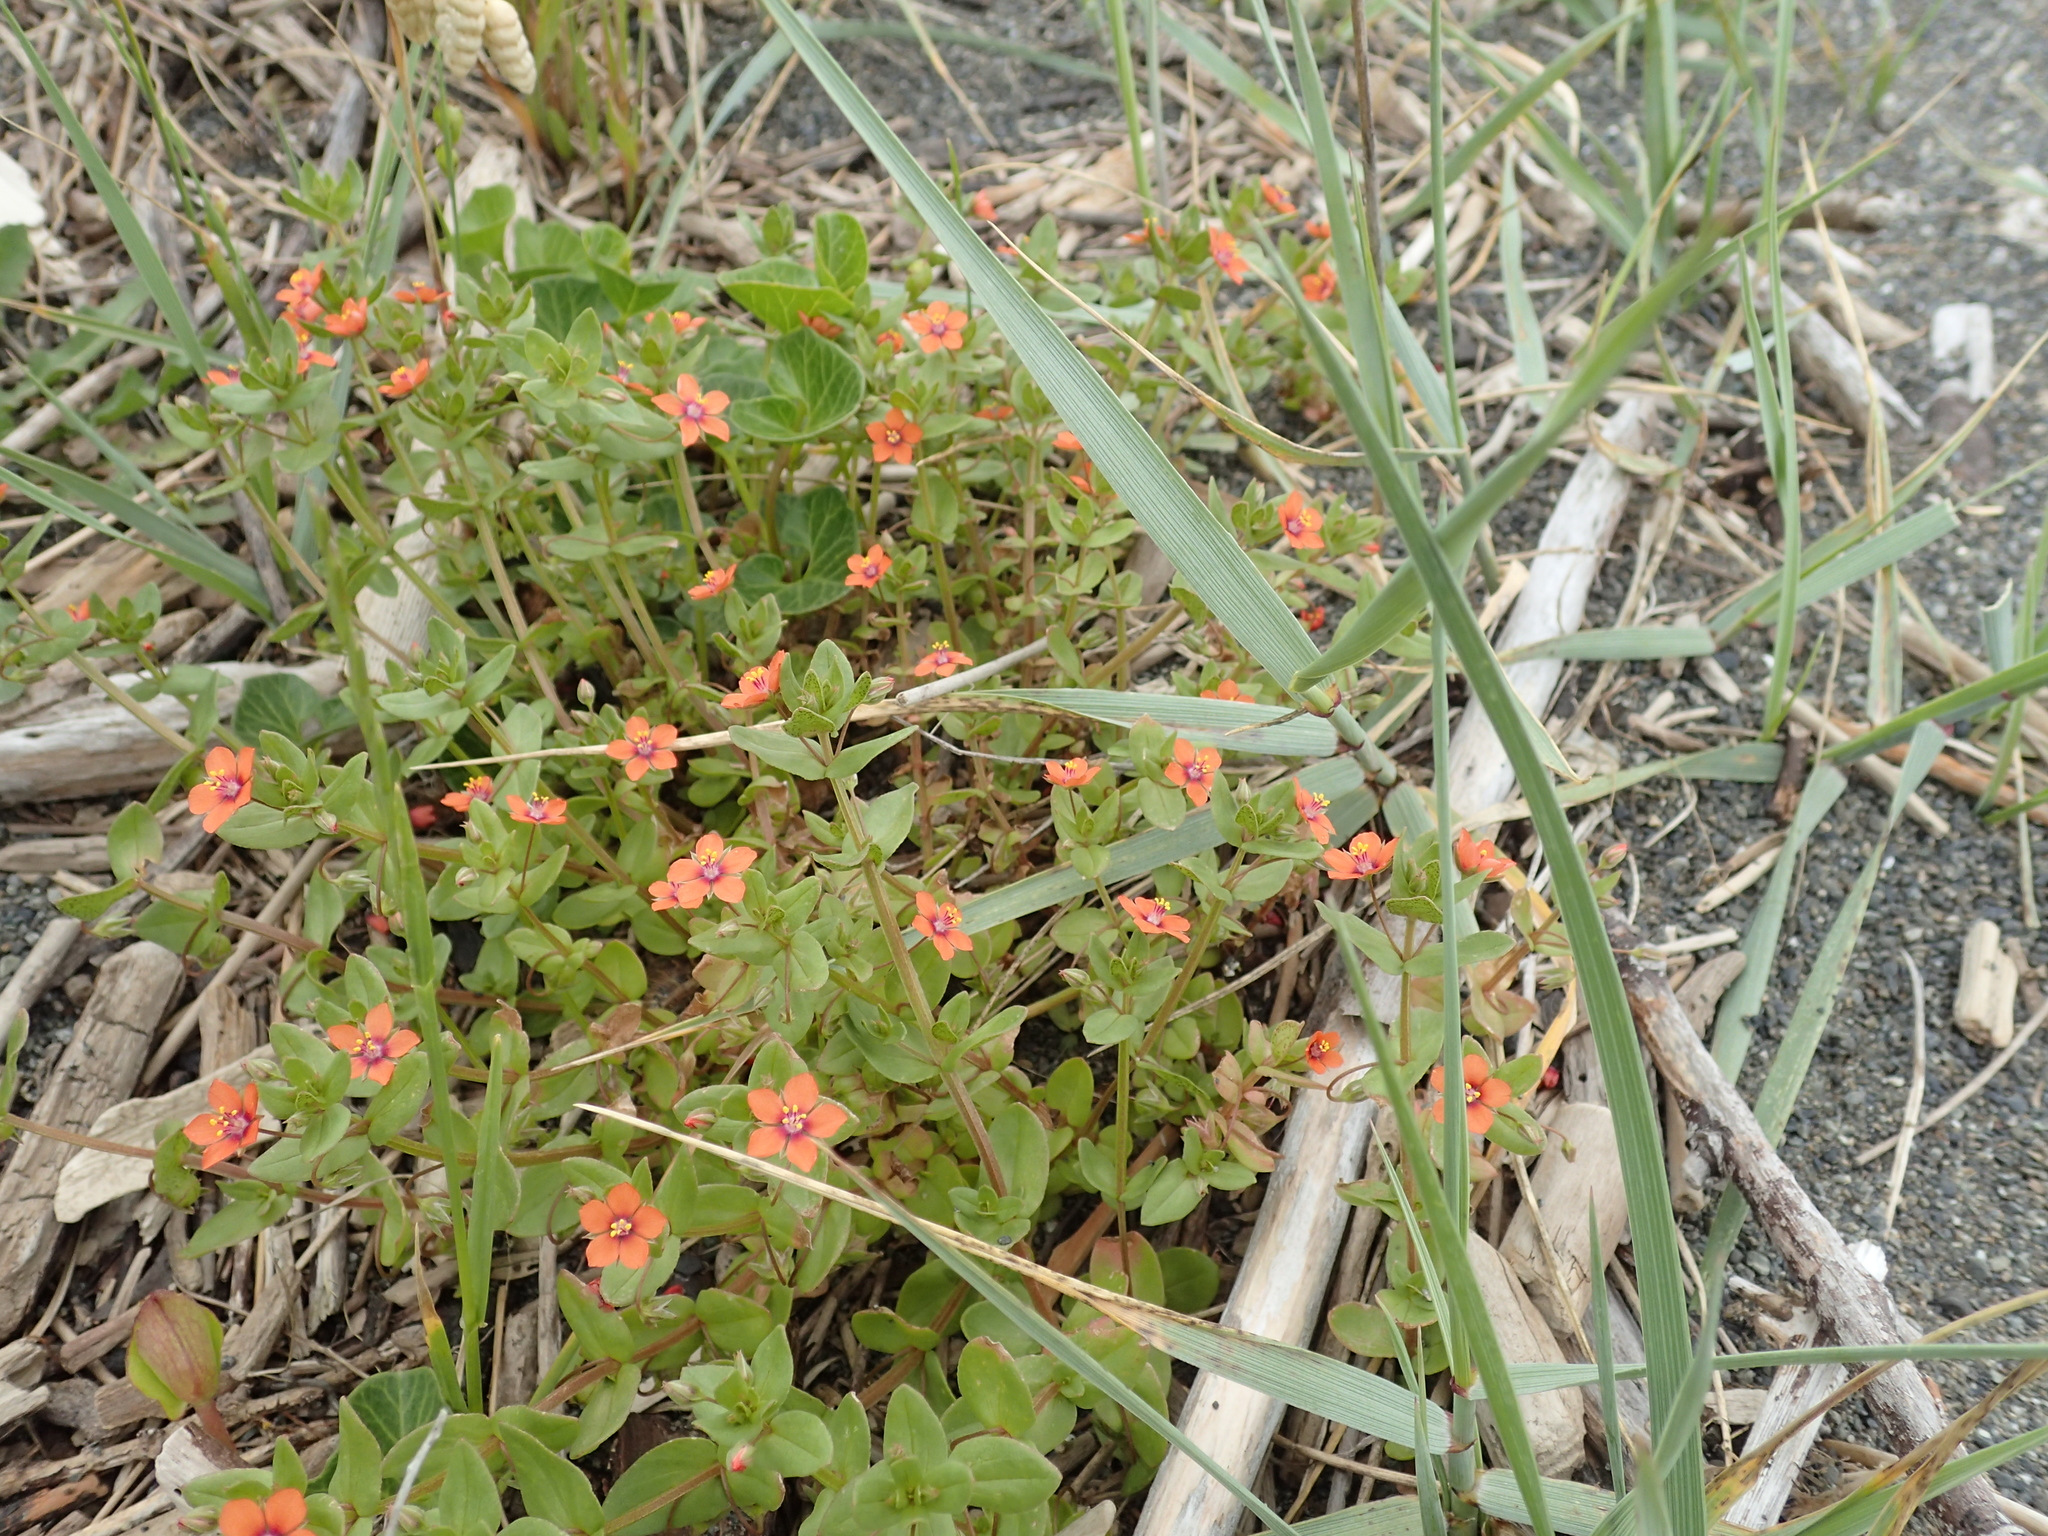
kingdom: Plantae
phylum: Tracheophyta
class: Magnoliopsida
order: Ericales
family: Primulaceae
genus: Lysimachia
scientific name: Lysimachia arvensis
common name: Scarlet pimpernel
